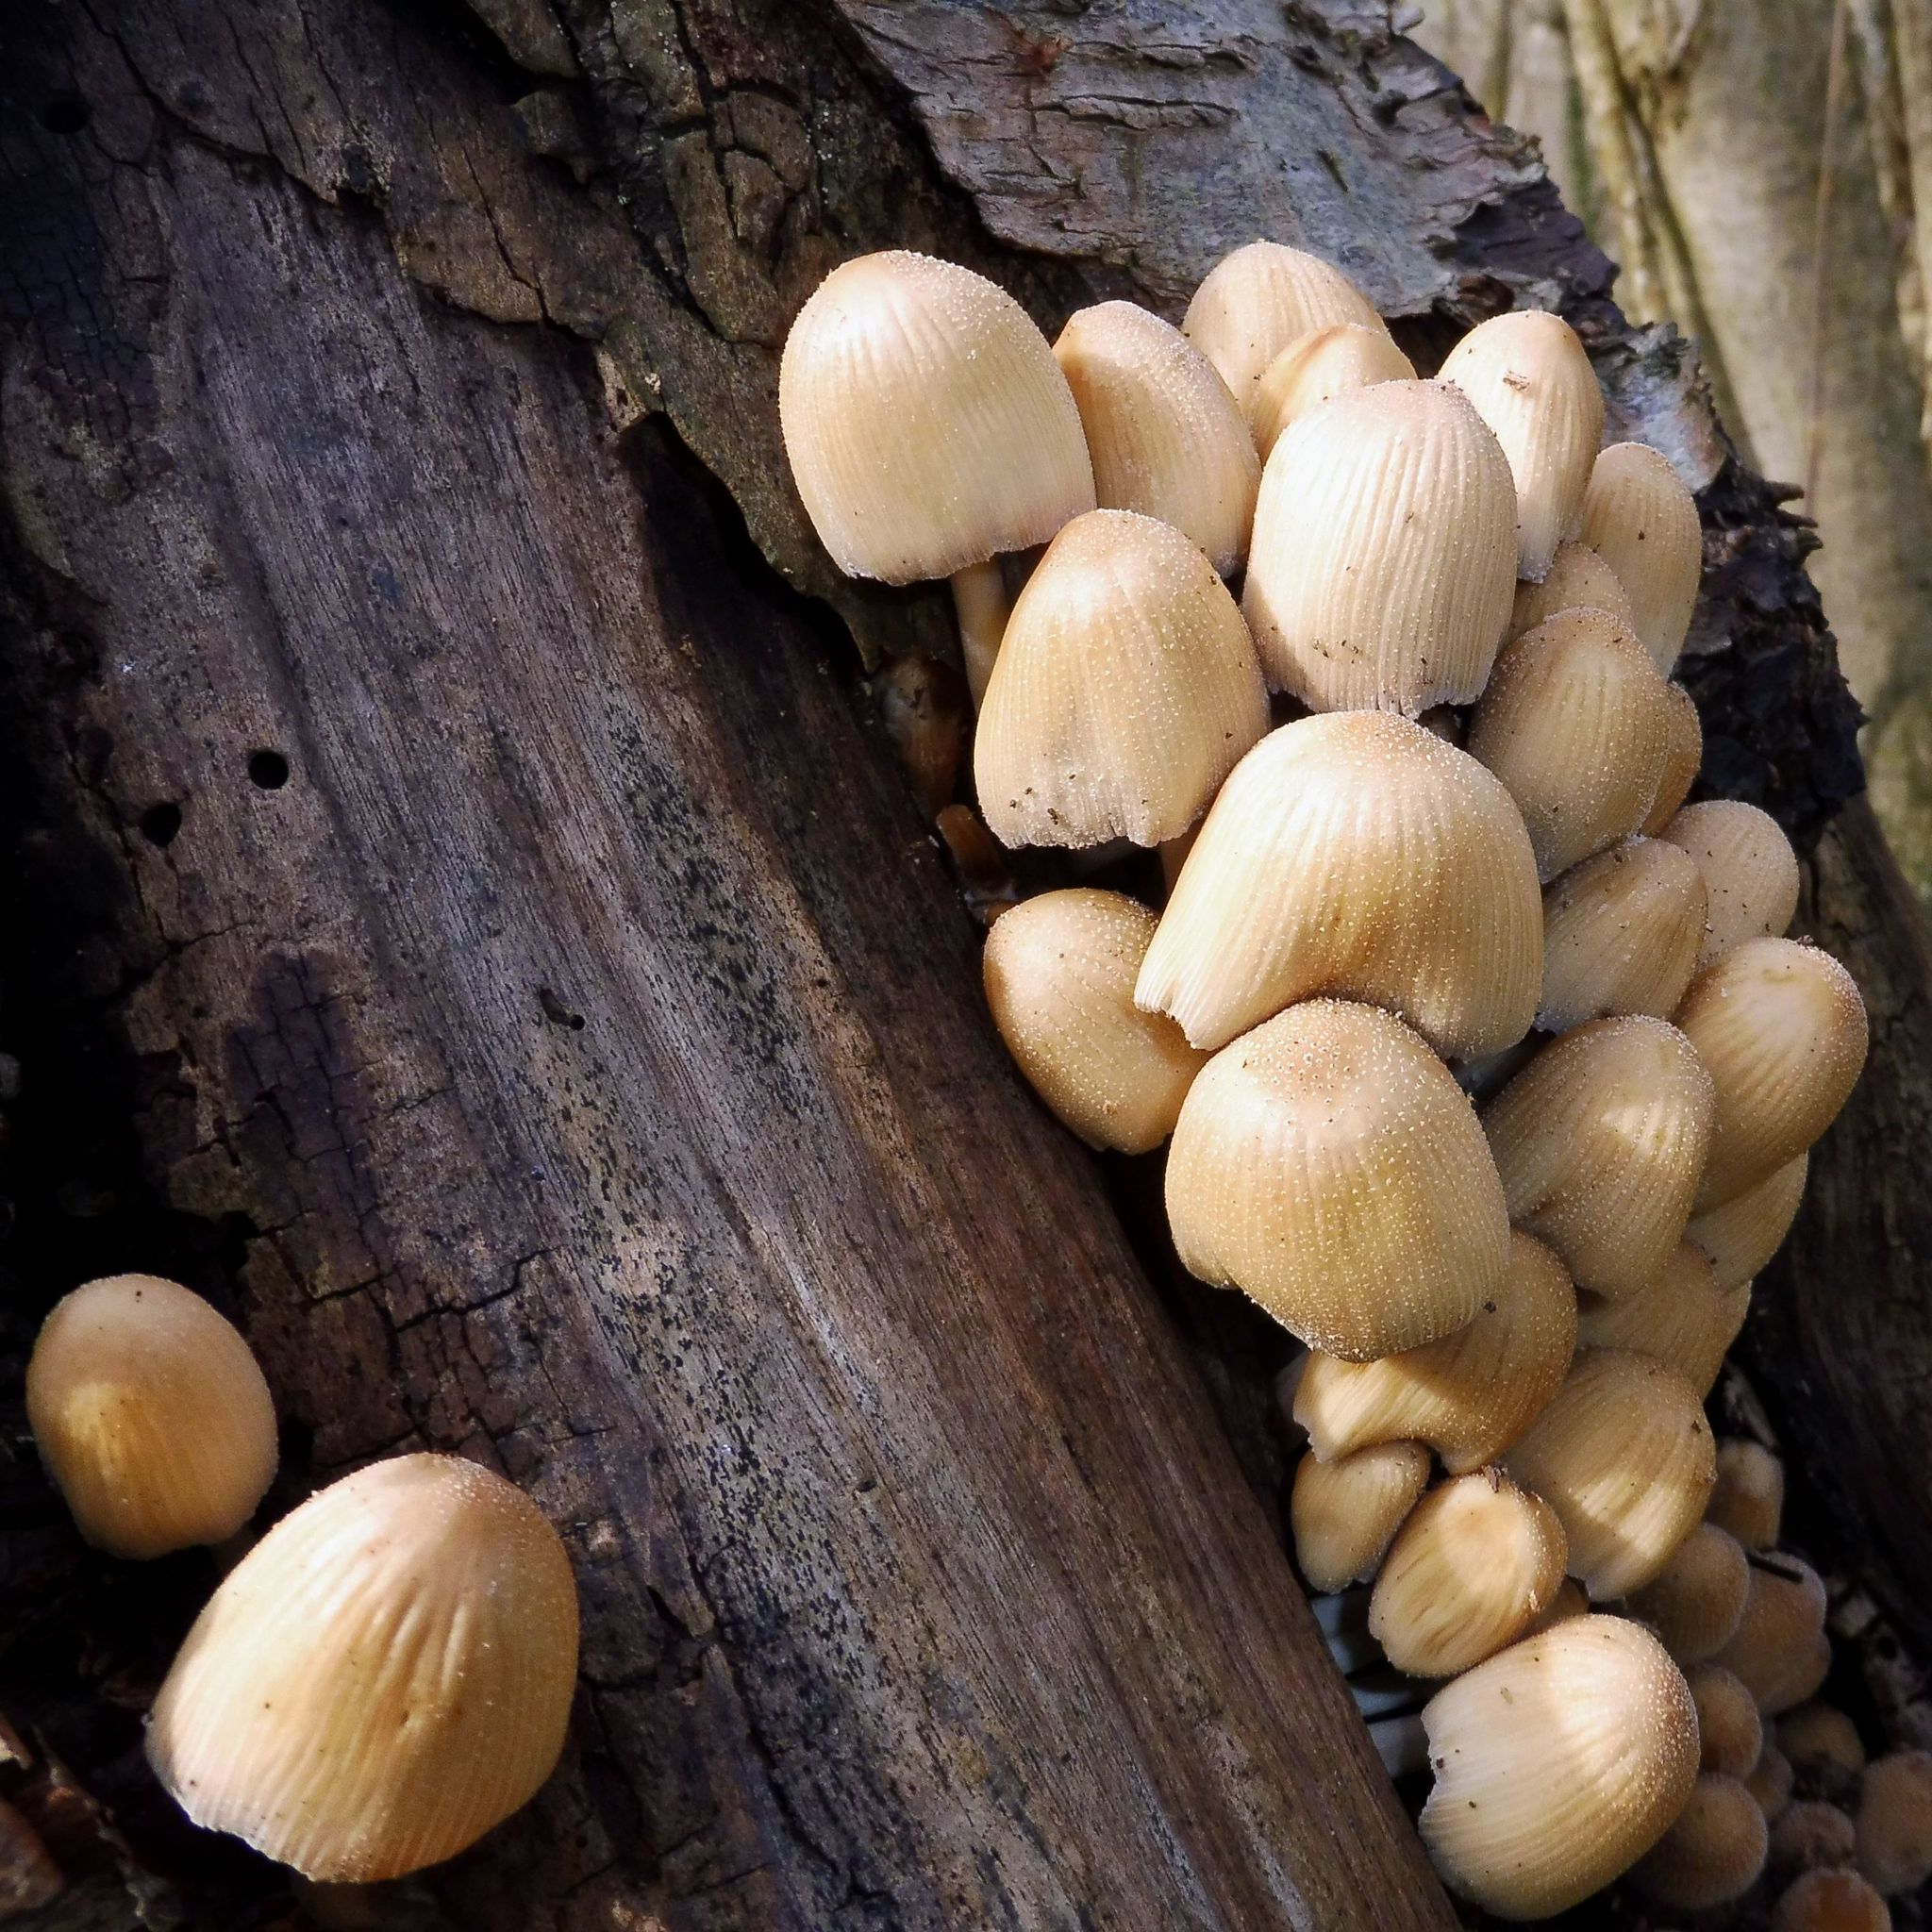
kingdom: Fungi
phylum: Basidiomycota
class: Agaricomycetes
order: Agaricales
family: Psathyrellaceae
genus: Coprinellus
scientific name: Coprinellus micaceus
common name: Glistening ink-cap
